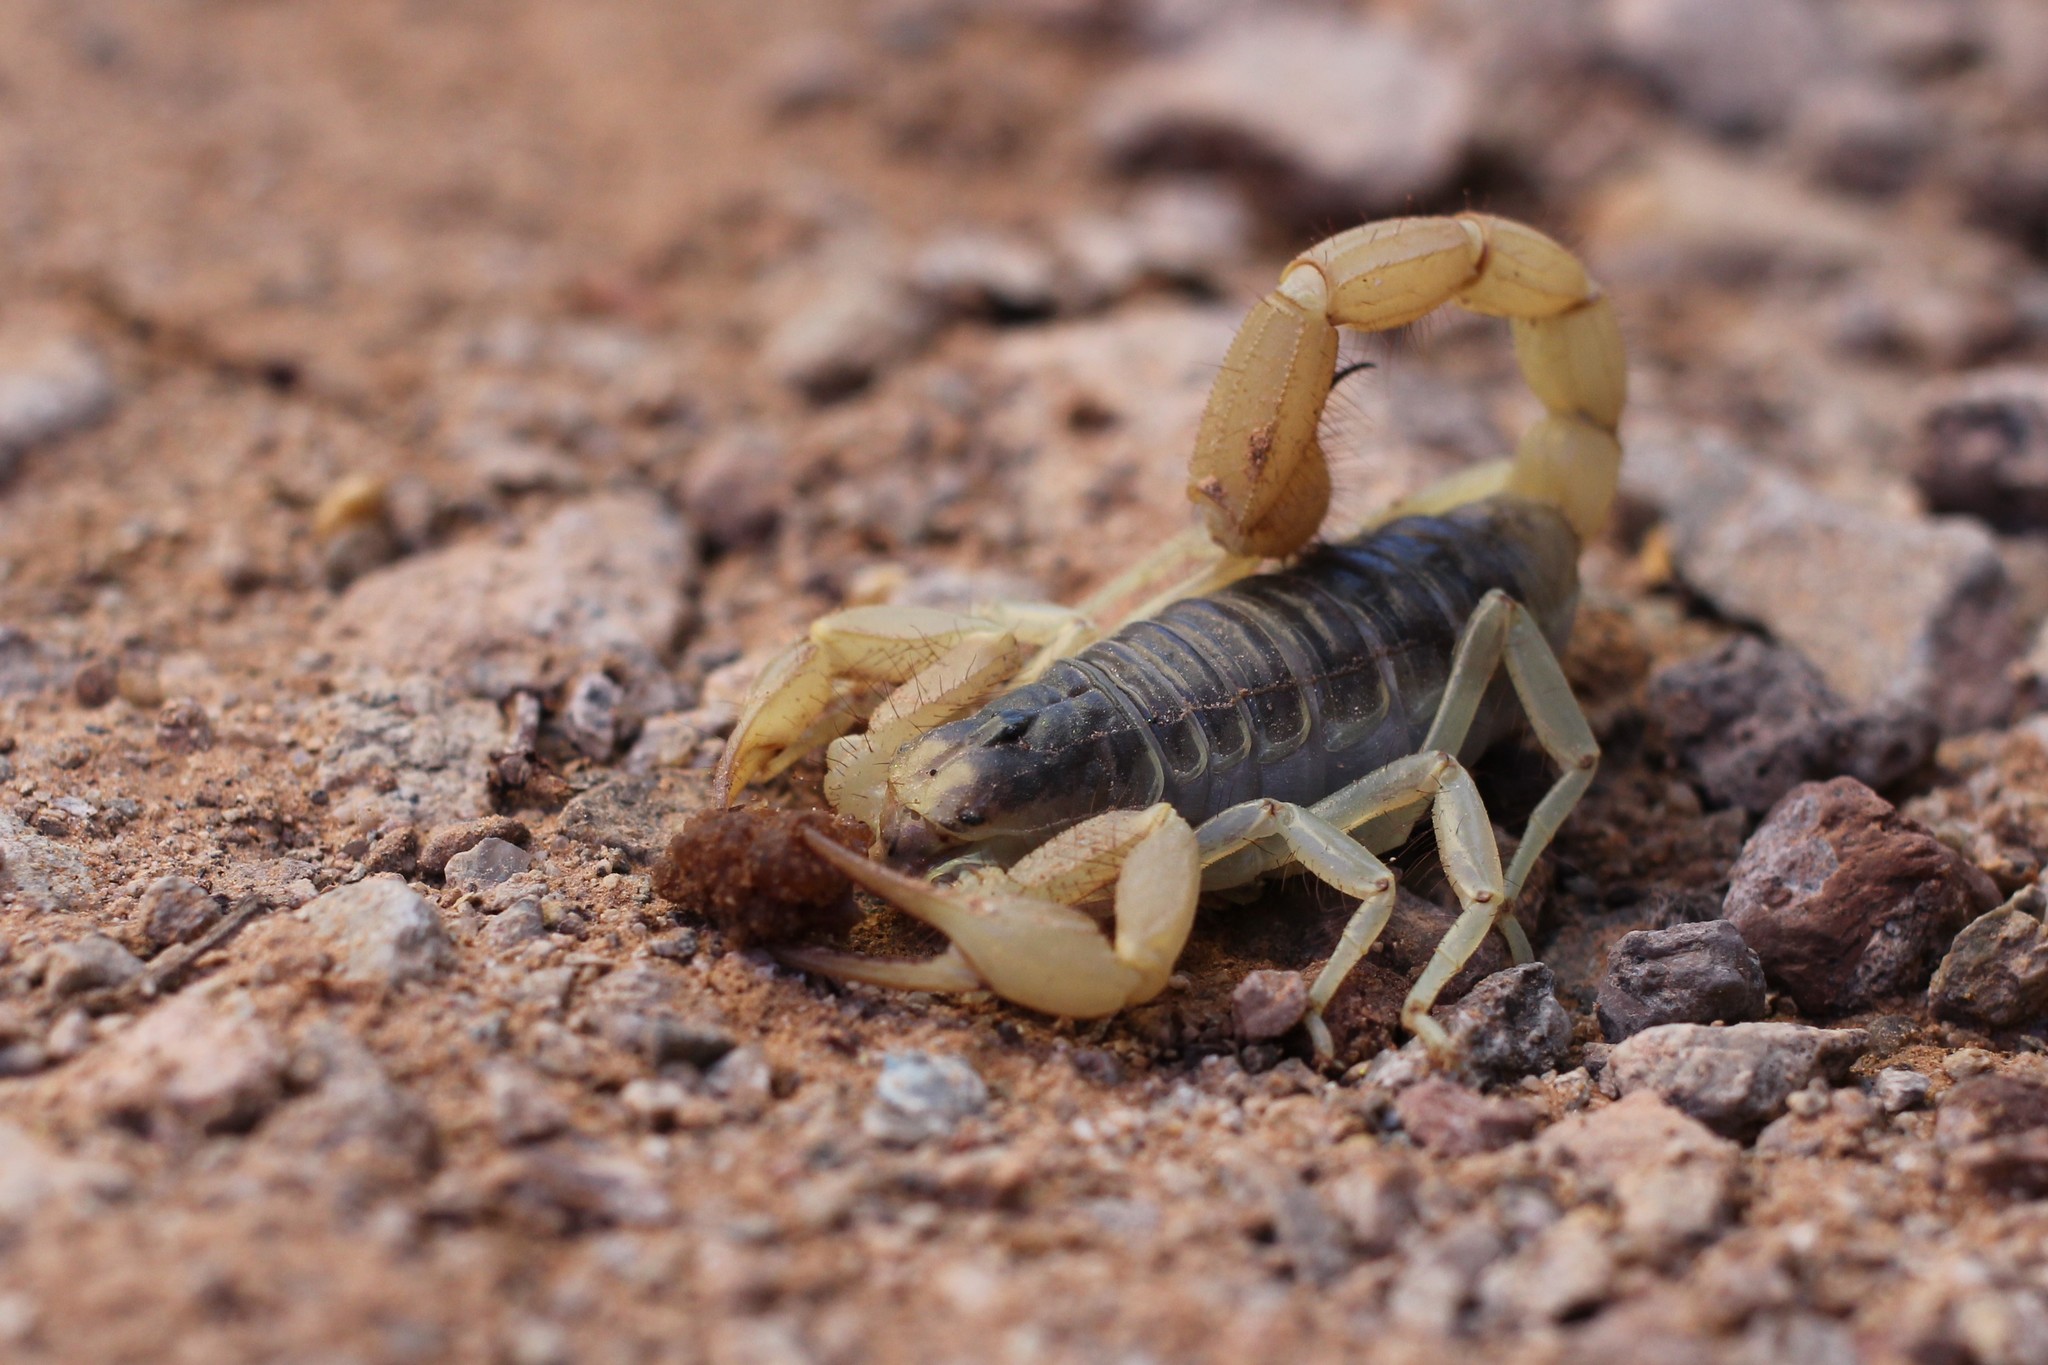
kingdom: Animalia
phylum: Arthropoda
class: Arachnida
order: Scorpiones
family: Hadruridae
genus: Hadrurus
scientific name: Hadrurus arizonensis
